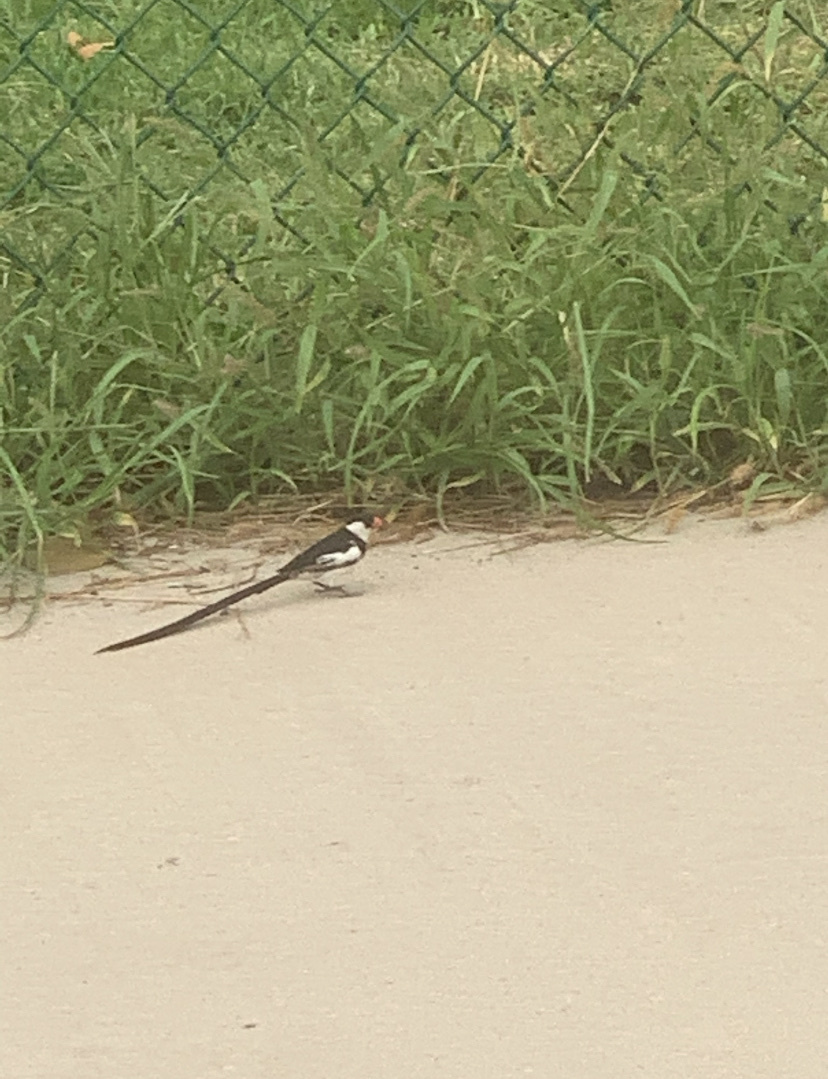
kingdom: Animalia
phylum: Chordata
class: Aves
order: Passeriformes
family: Viduidae
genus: Vidua
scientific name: Vidua macroura
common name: Pin-tailed whydah
